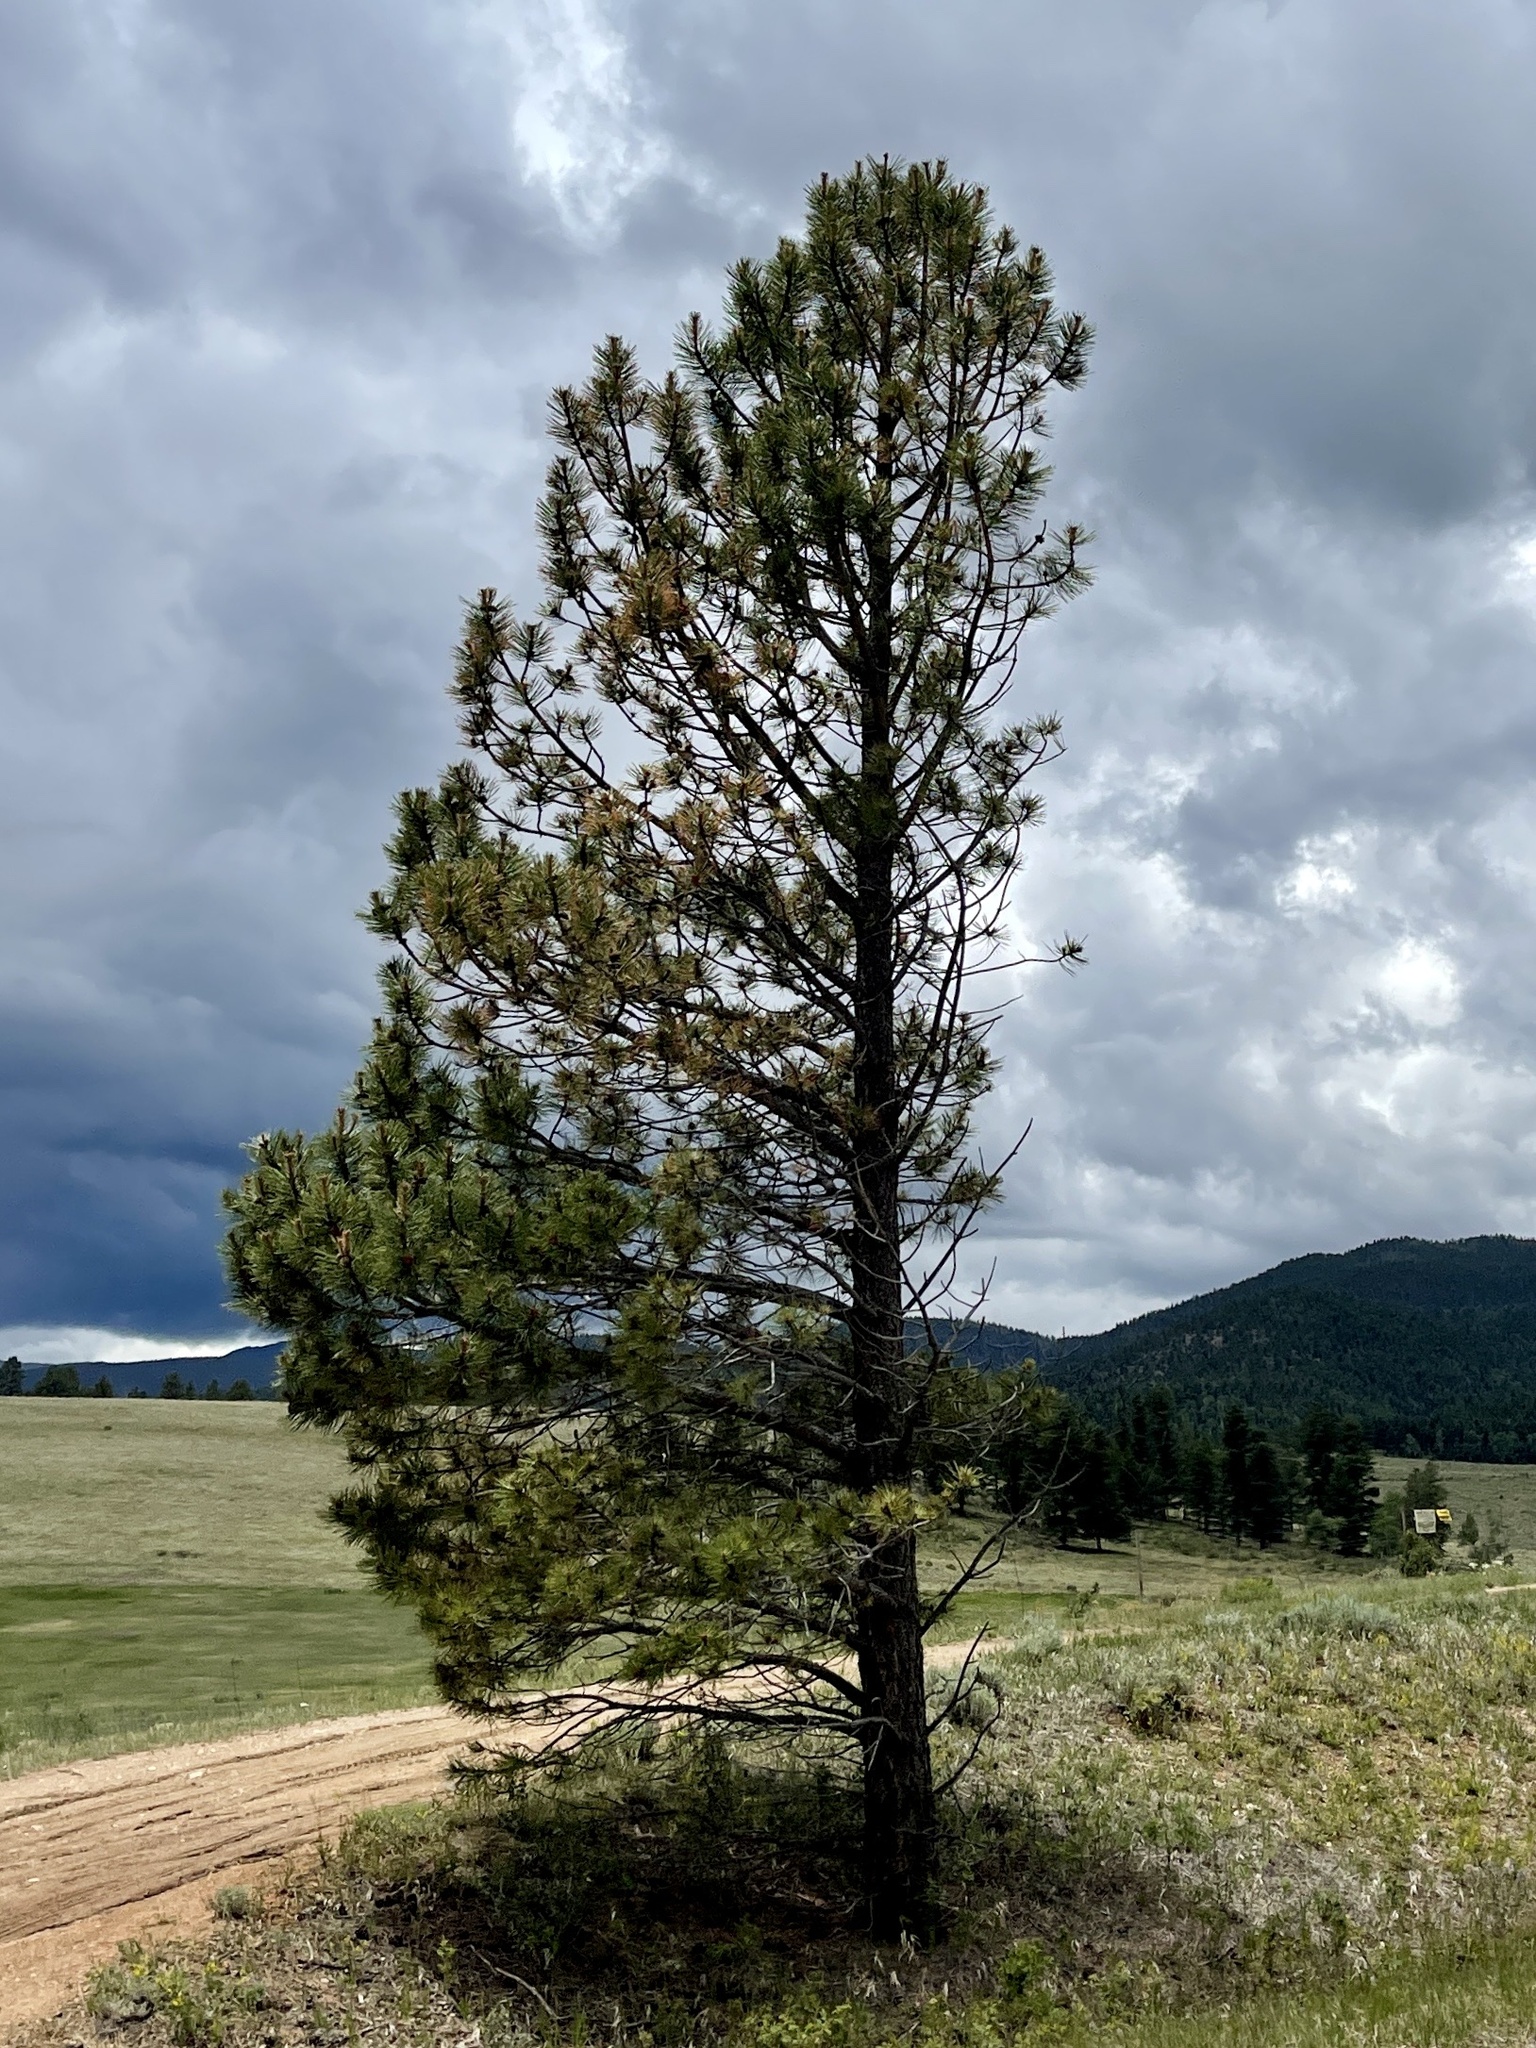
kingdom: Plantae
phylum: Tracheophyta
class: Pinopsida
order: Pinales
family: Pinaceae
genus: Pinus
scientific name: Pinus ponderosa
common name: Western yellow-pine
